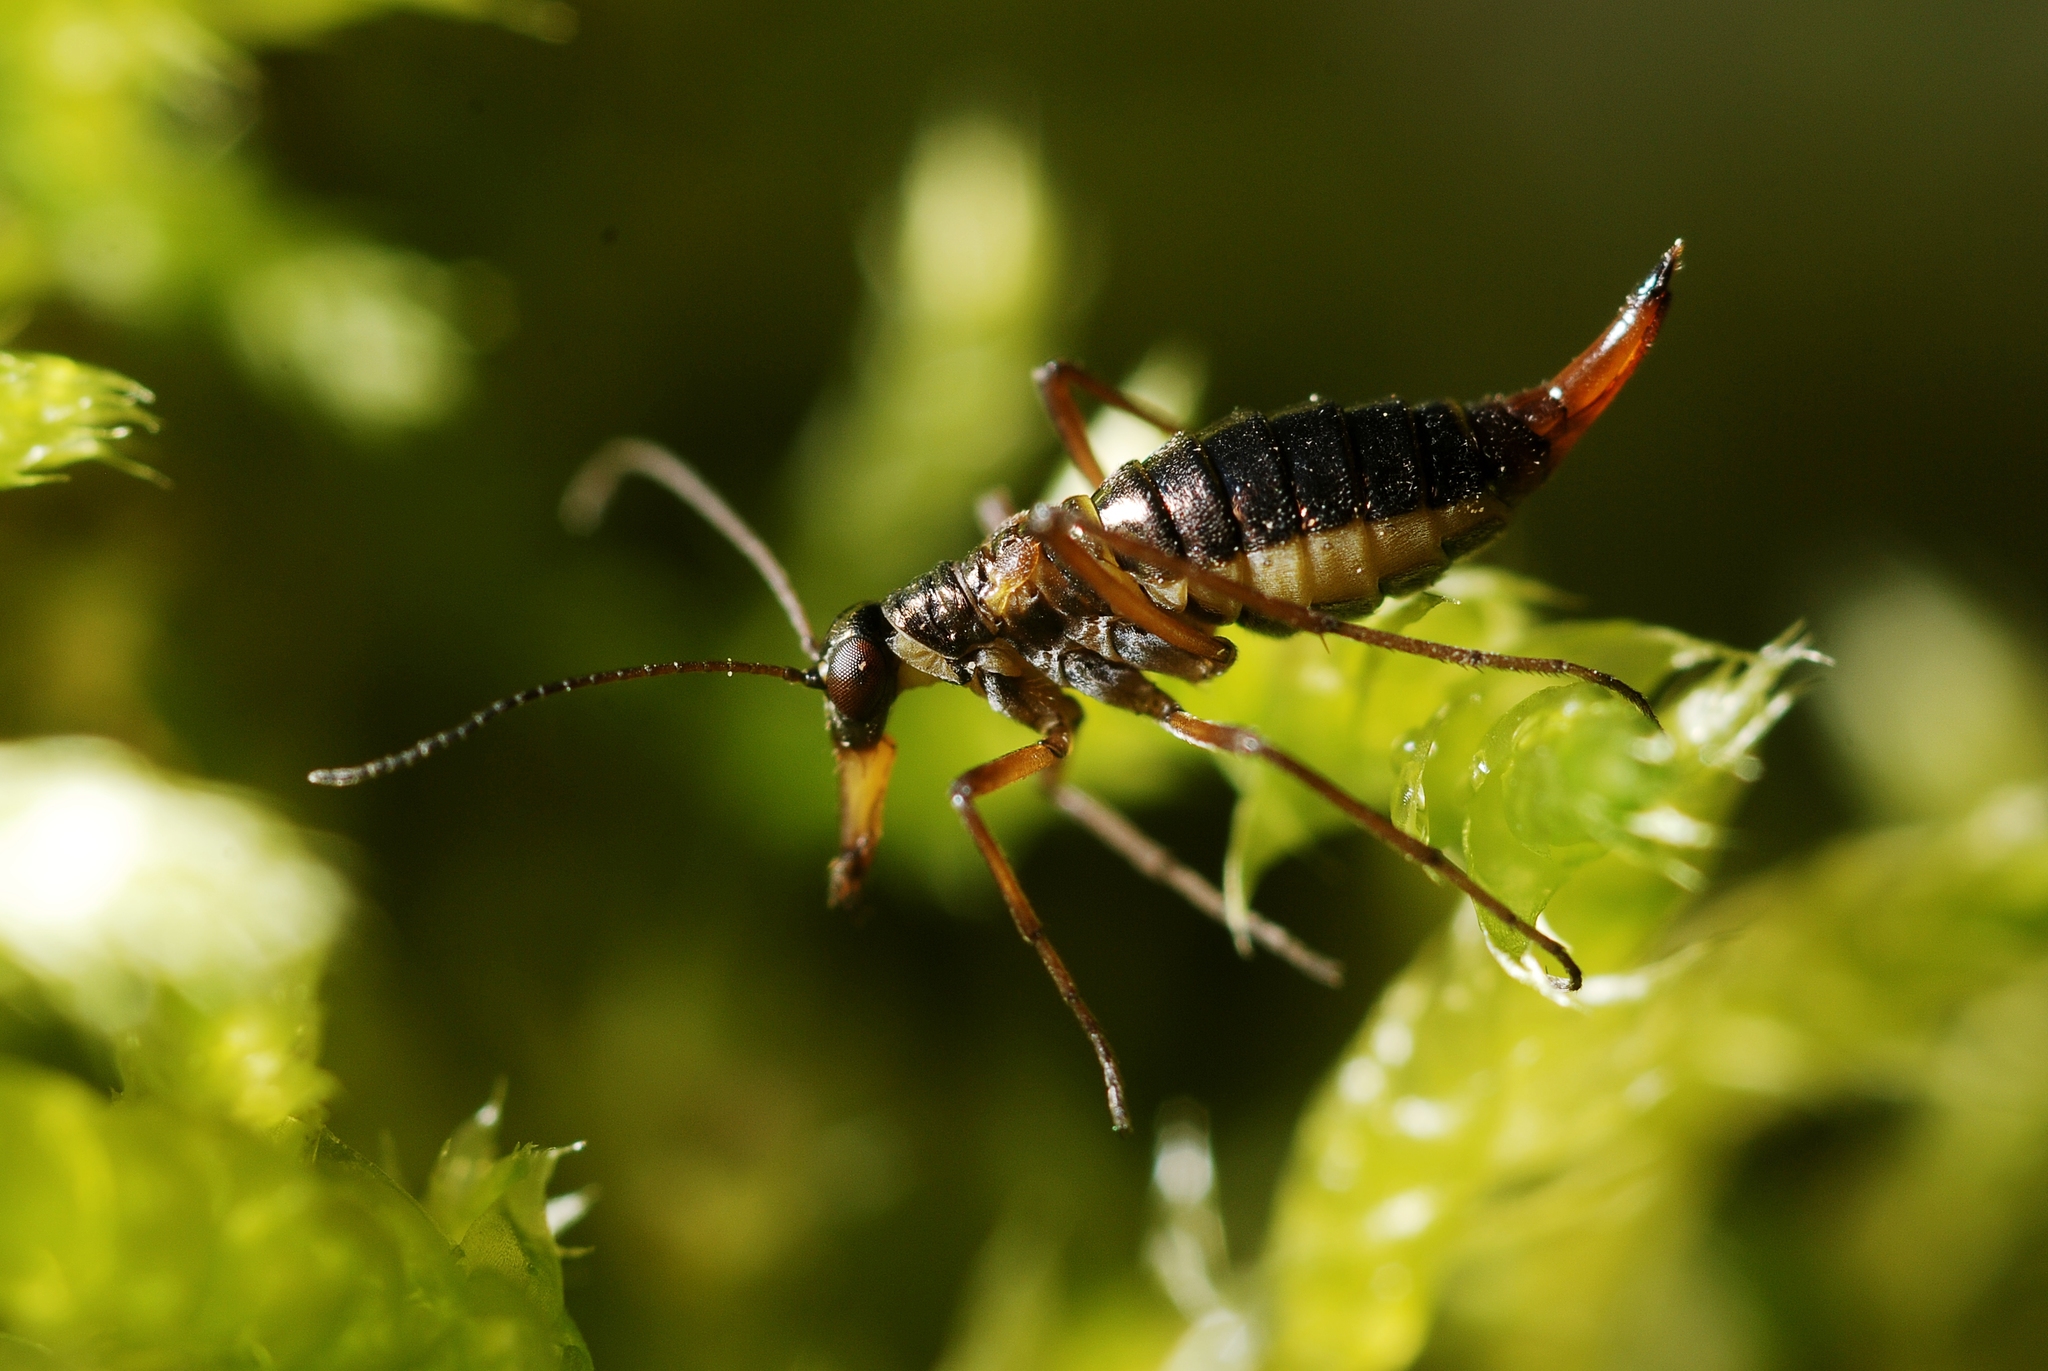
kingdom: Animalia
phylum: Arthropoda
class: Insecta
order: Mecoptera
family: Boreidae
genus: Boreus
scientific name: Boreus hyemalis
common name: Snow flea
